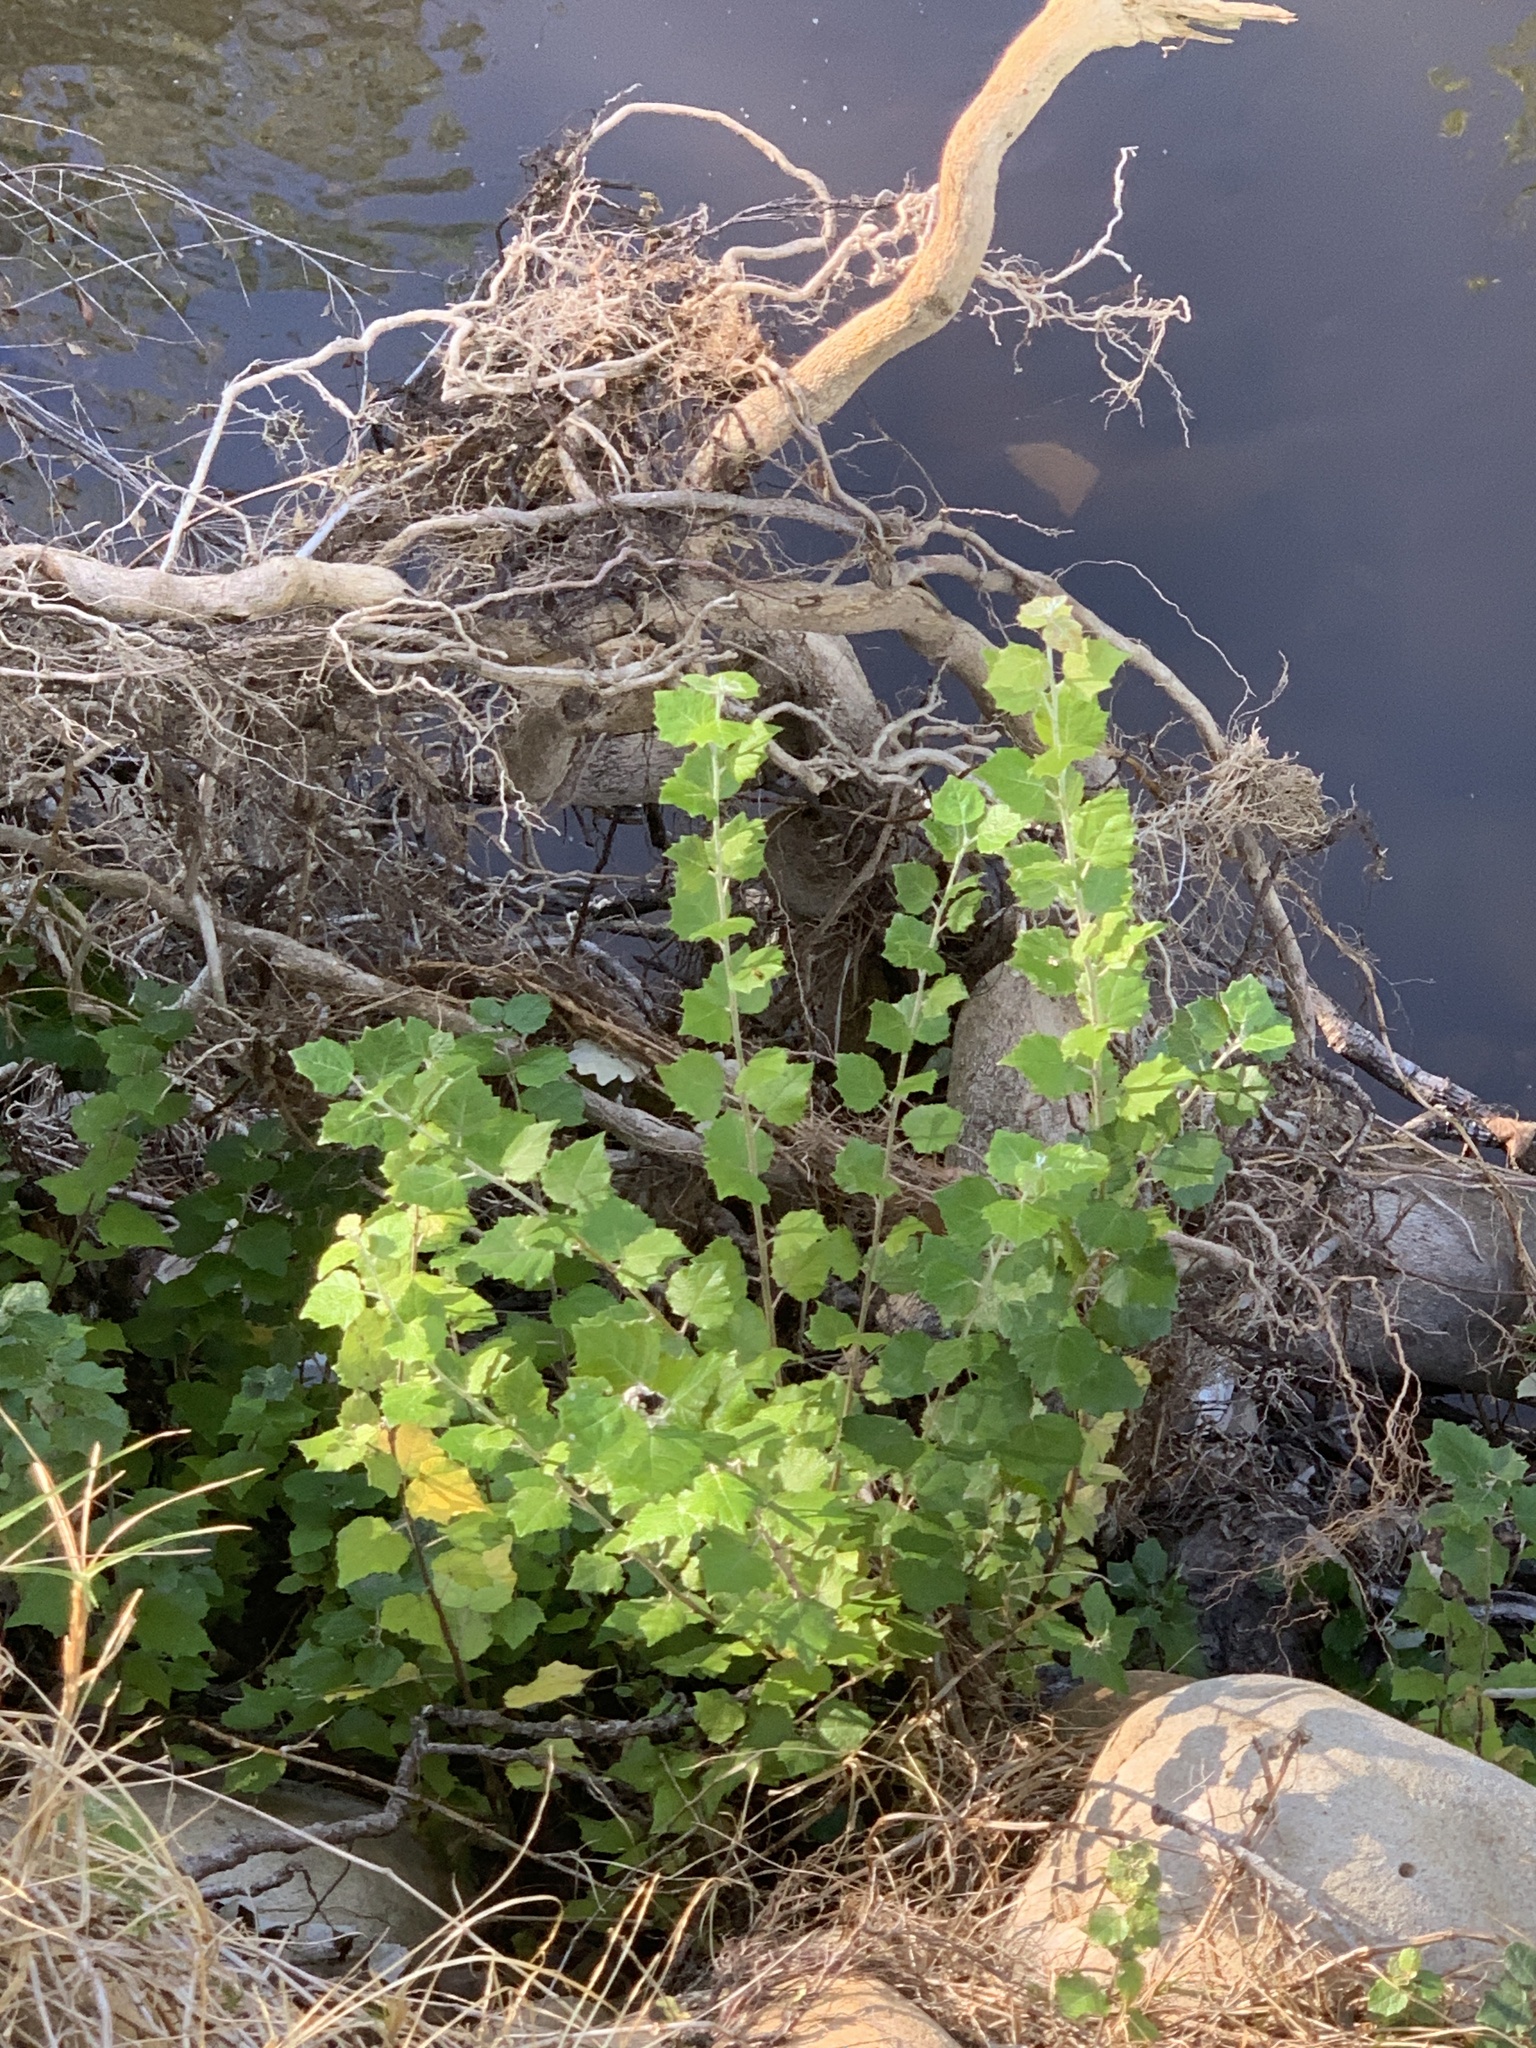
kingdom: Plantae
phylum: Tracheophyta
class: Magnoliopsida
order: Malpighiales
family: Salicaceae
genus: Populus
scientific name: Populus canescens
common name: Gray poplar
